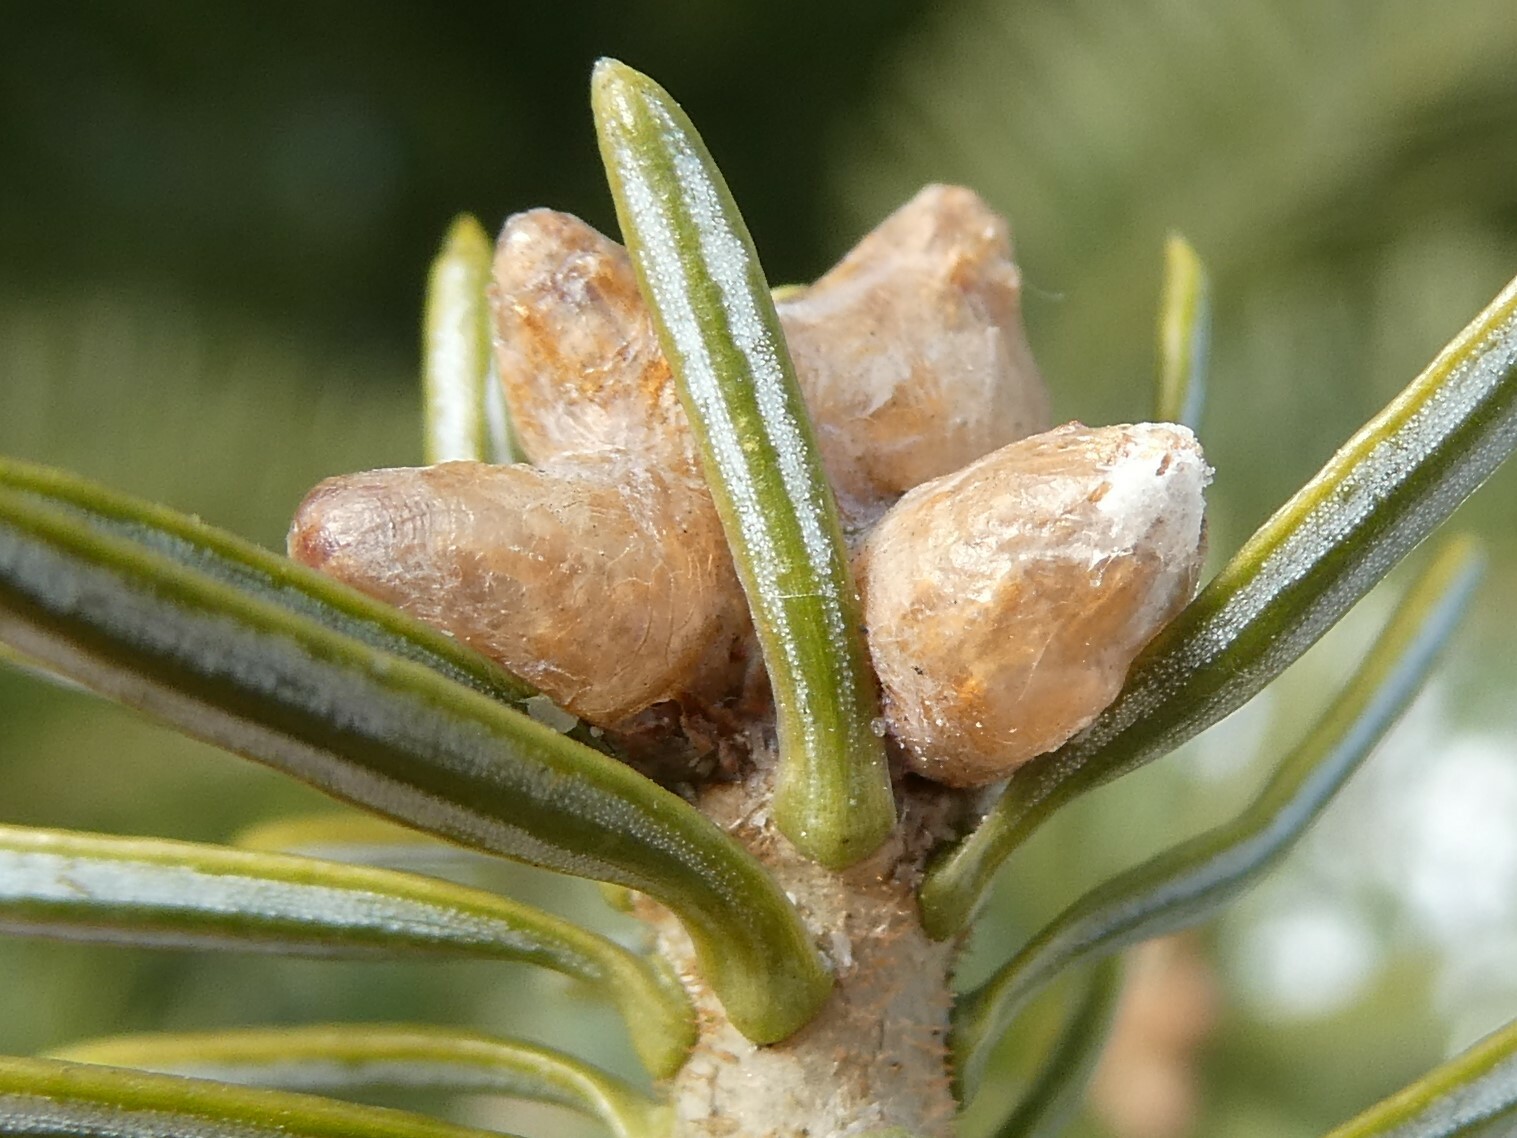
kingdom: Plantae
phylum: Tracheophyta
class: Pinopsida
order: Pinales
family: Pinaceae
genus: Abies
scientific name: Abies balsamea
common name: Balsam fir
